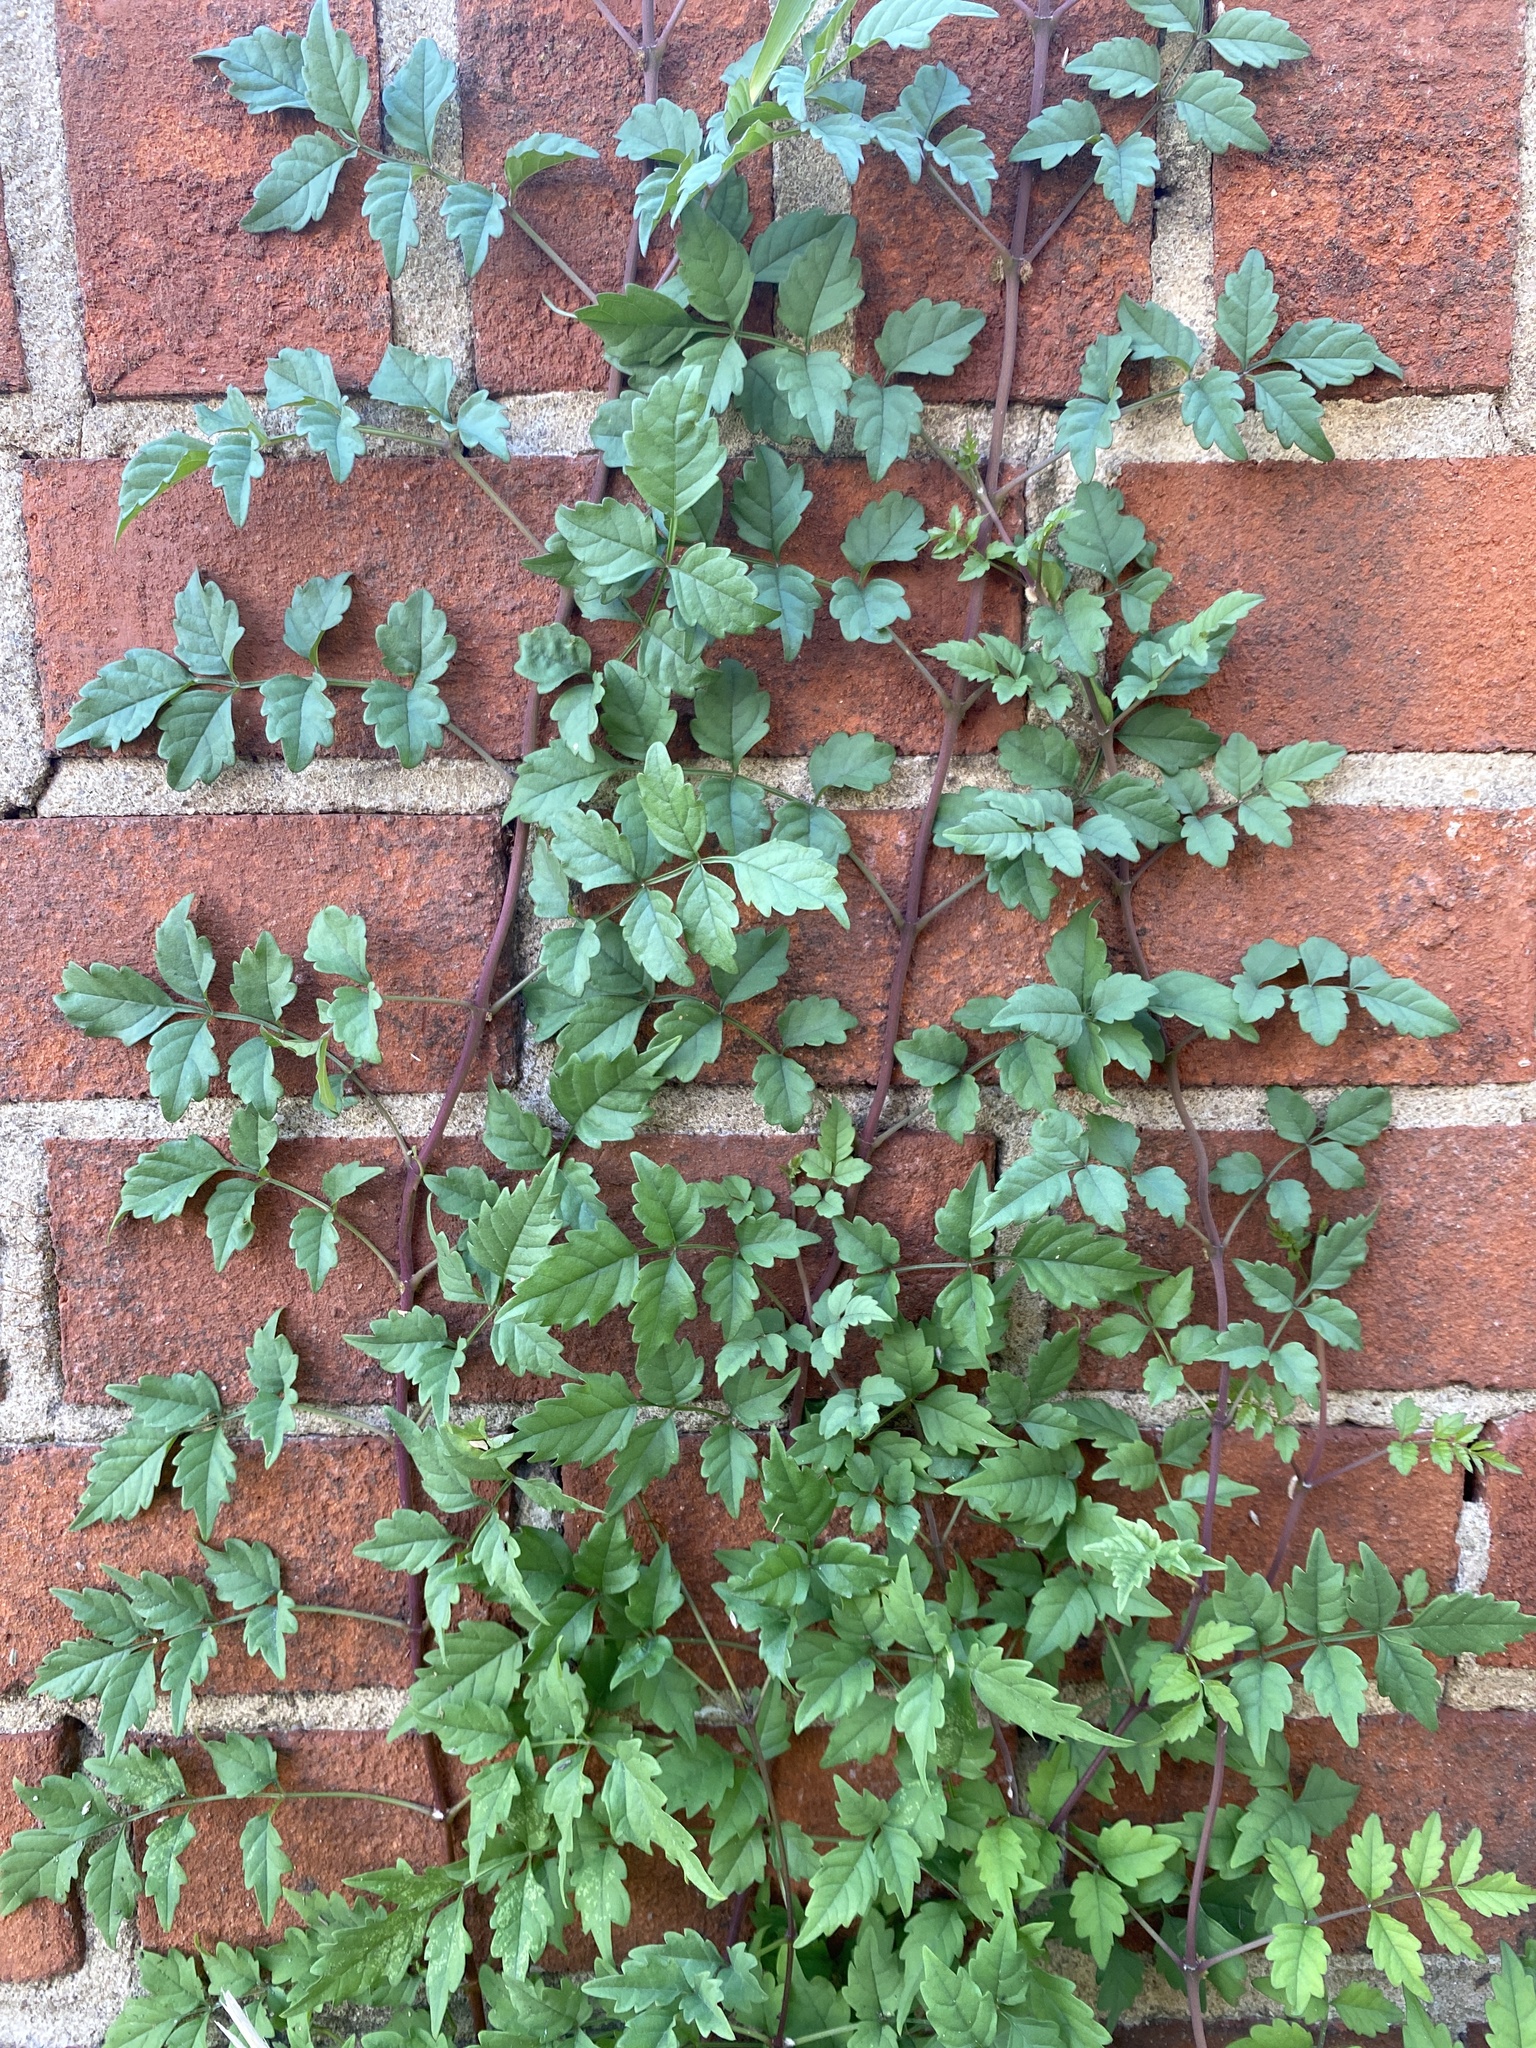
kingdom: Plantae
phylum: Tracheophyta
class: Magnoliopsida
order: Lamiales
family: Bignoniaceae
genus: Campsis
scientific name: Campsis radicans
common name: Trumpet-creeper
